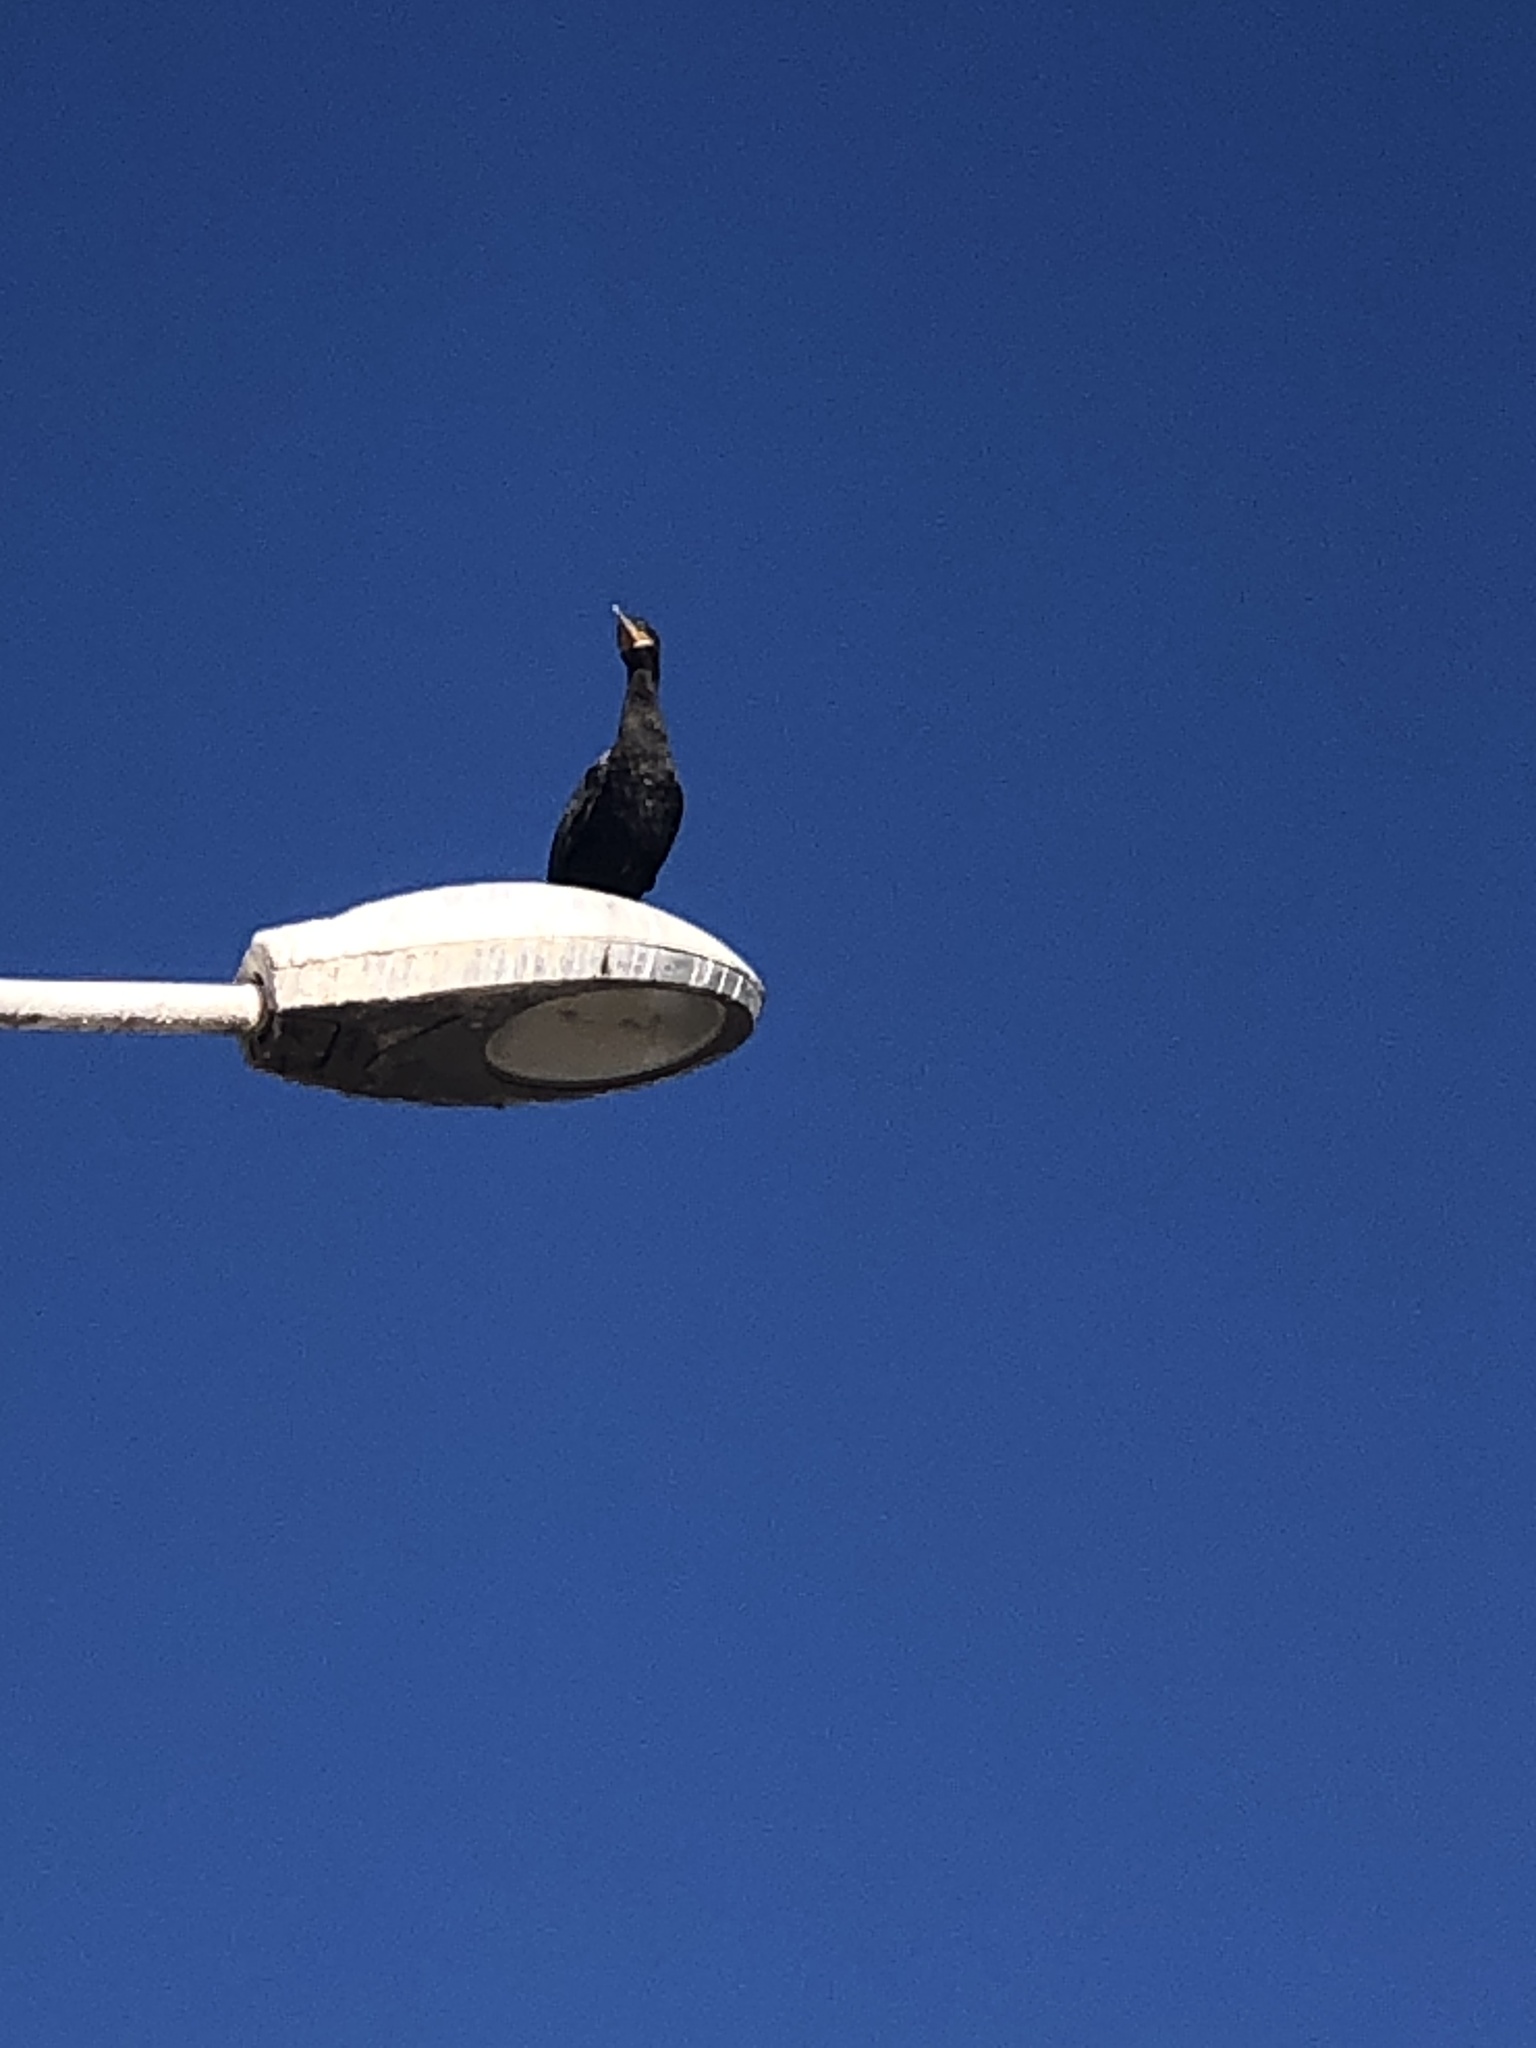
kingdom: Animalia
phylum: Chordata
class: Aves
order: Suliformes
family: Phalacrocoracidae
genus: Phalacrocorax
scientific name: Phalacrocorax brasilianus
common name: Neotropic cormorant
